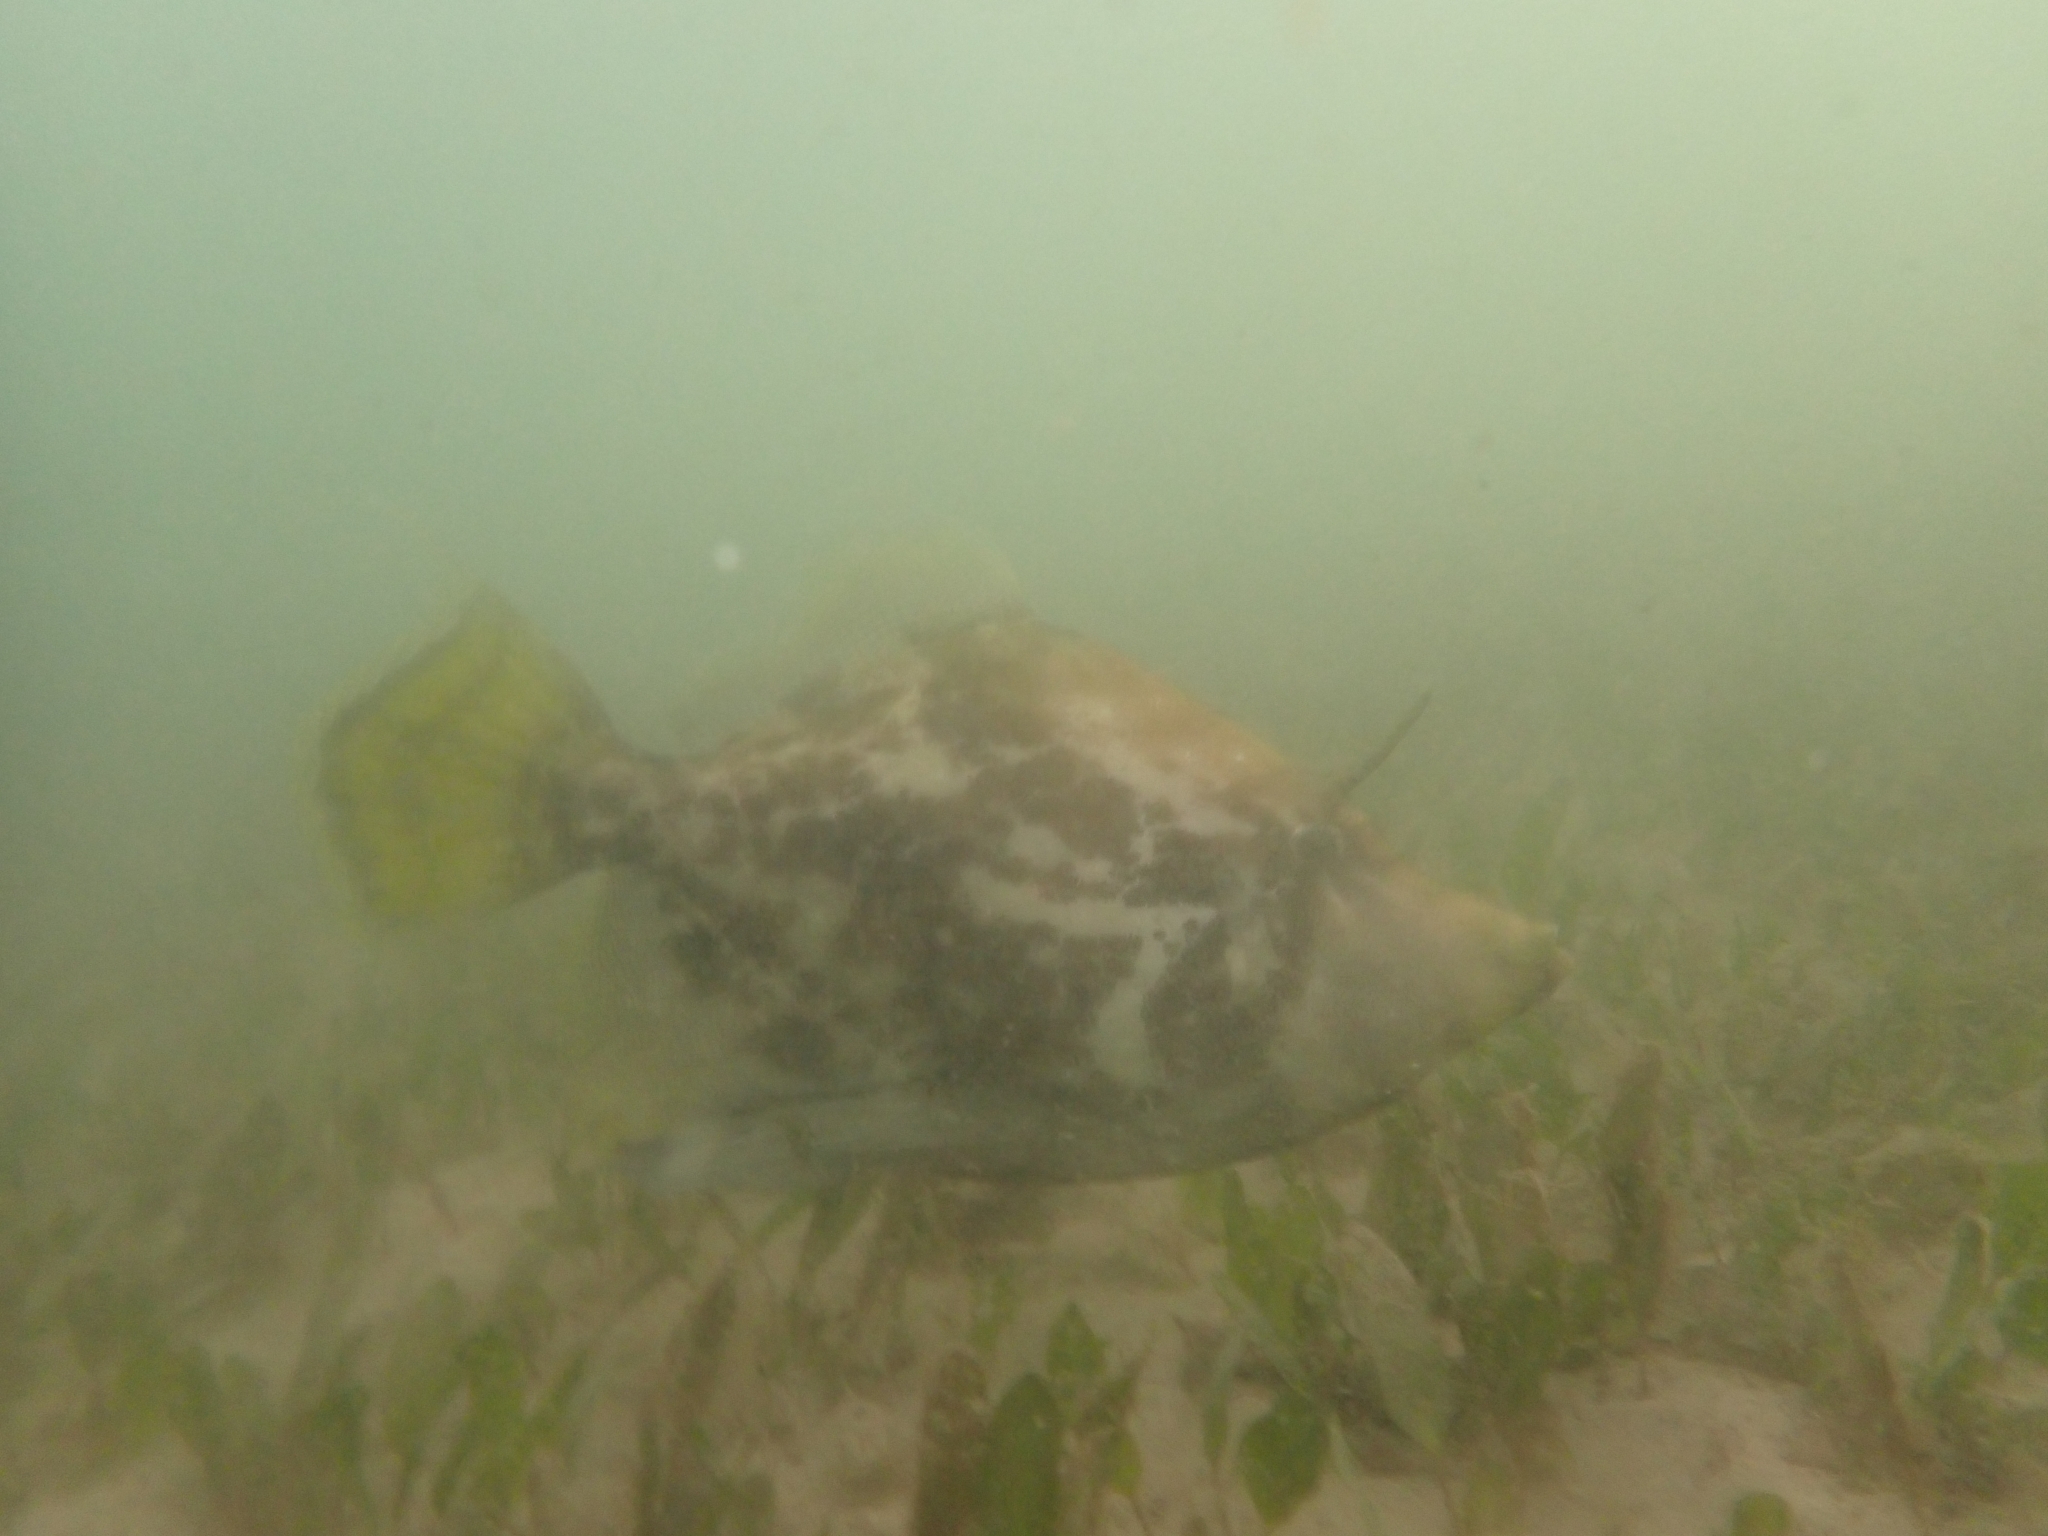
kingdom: Animalia
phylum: Chordata
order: Tetraodontiformes
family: Monacanthidae
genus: Monacanthus
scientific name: Monacanthus chinensis
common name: Centreboard leatherjacket
